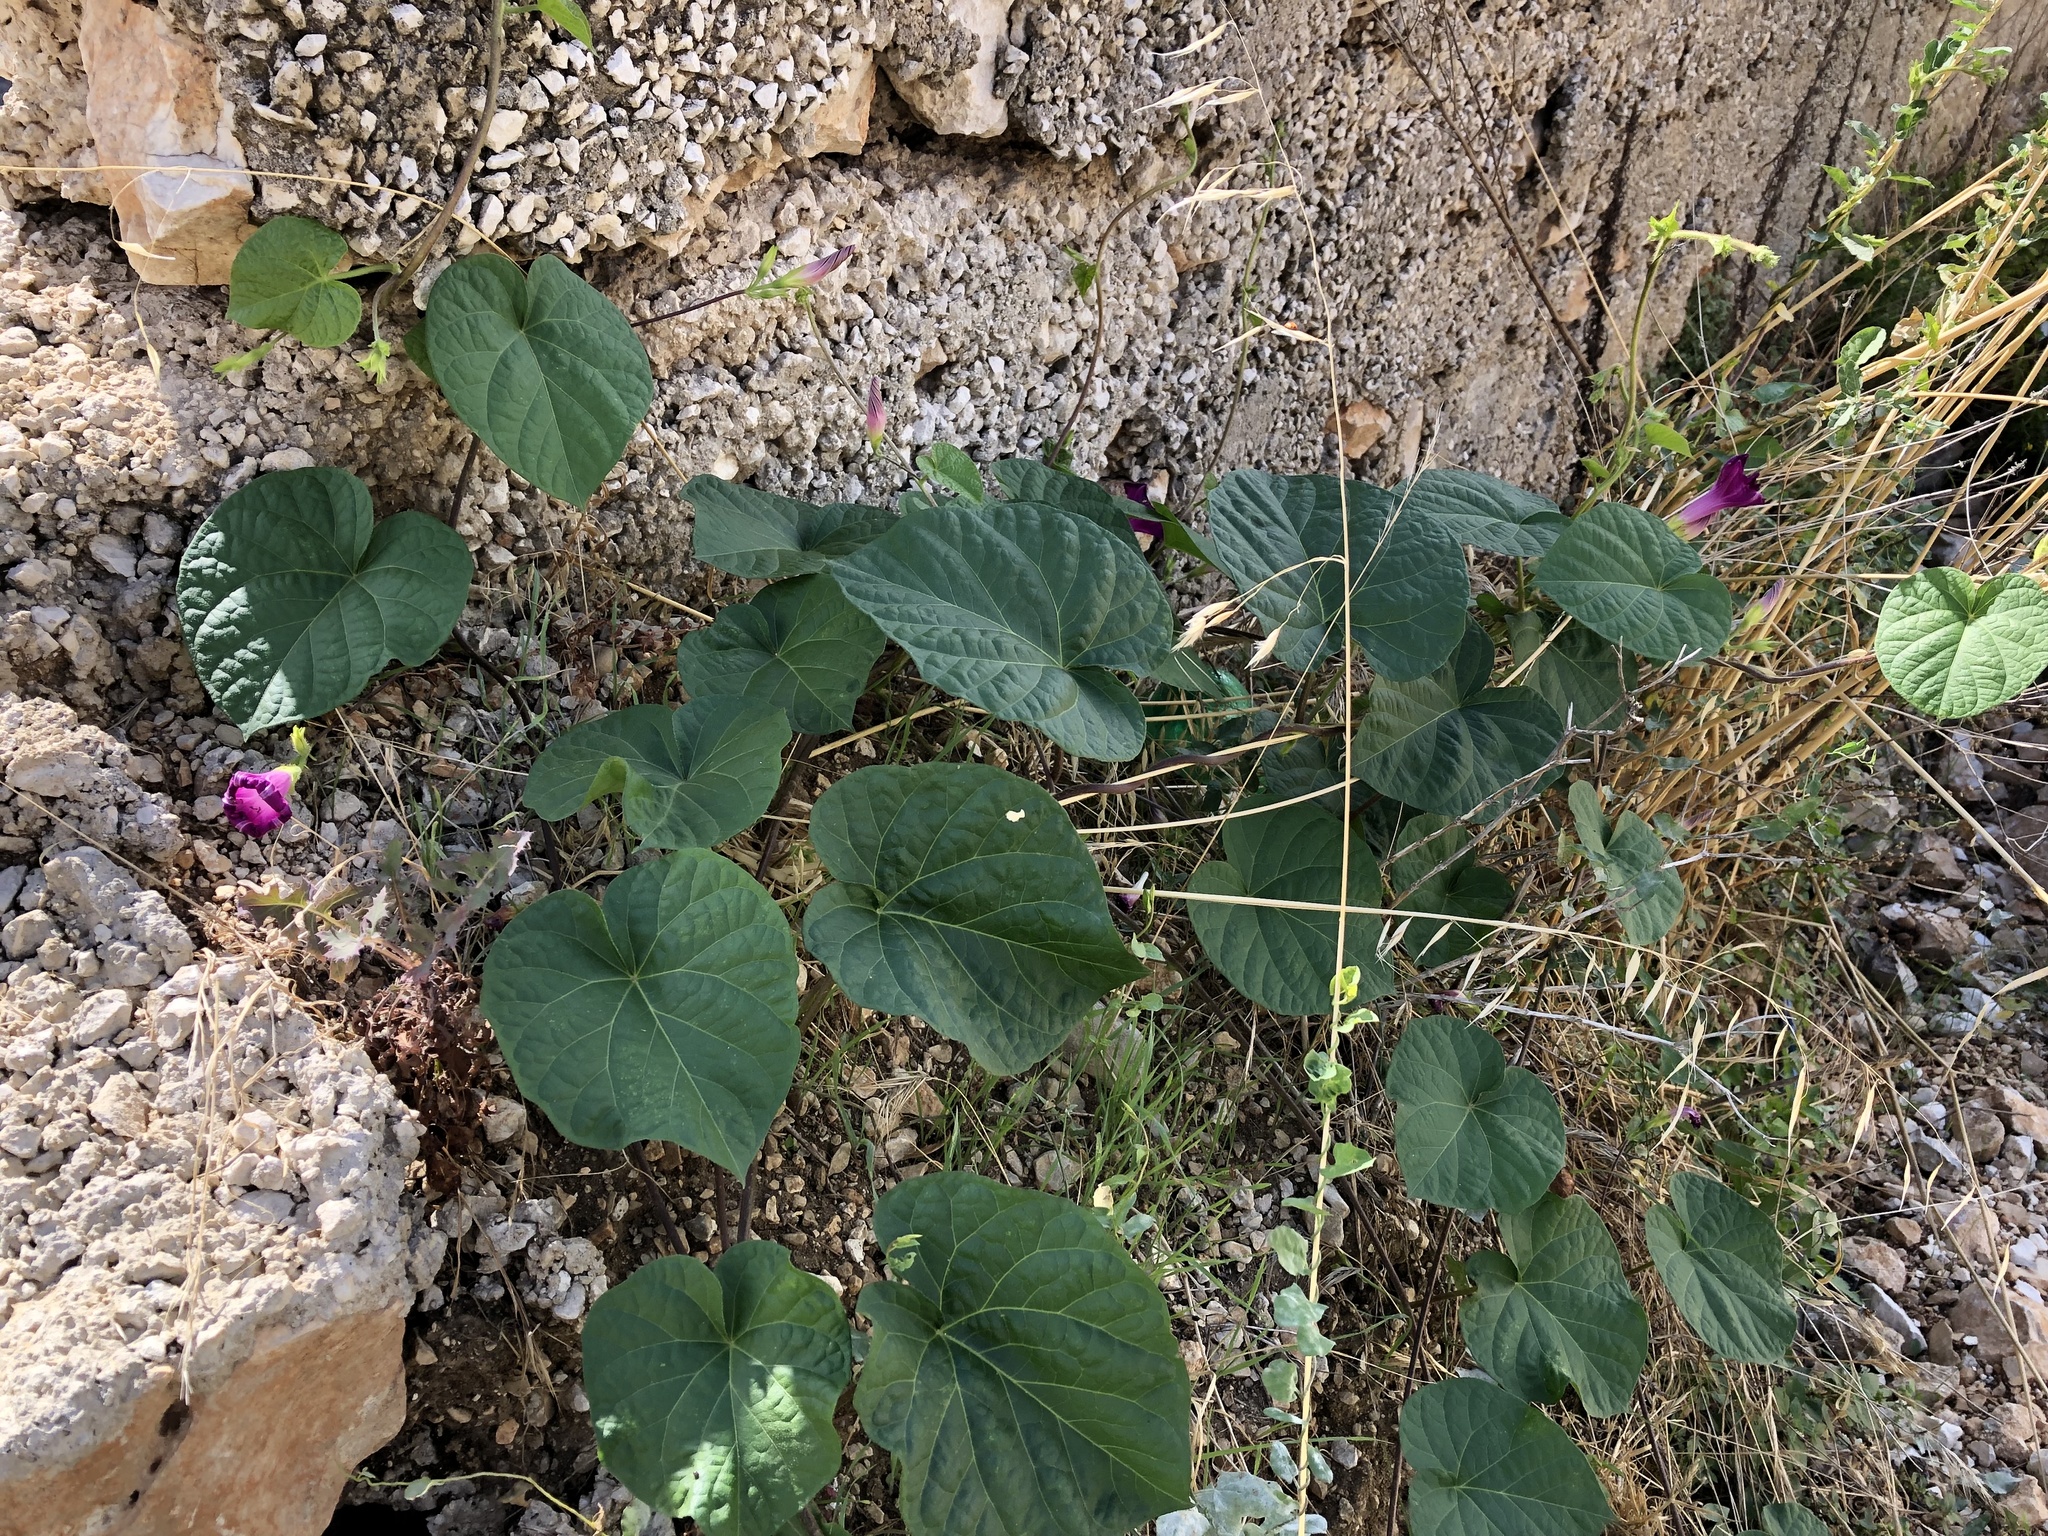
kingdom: Plantae
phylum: Tracheophyta
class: Magnoliopsida
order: Solanales
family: Convolvulaceae
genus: Ipomoea
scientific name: Ipomoea purpurea
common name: Common morning-glory
